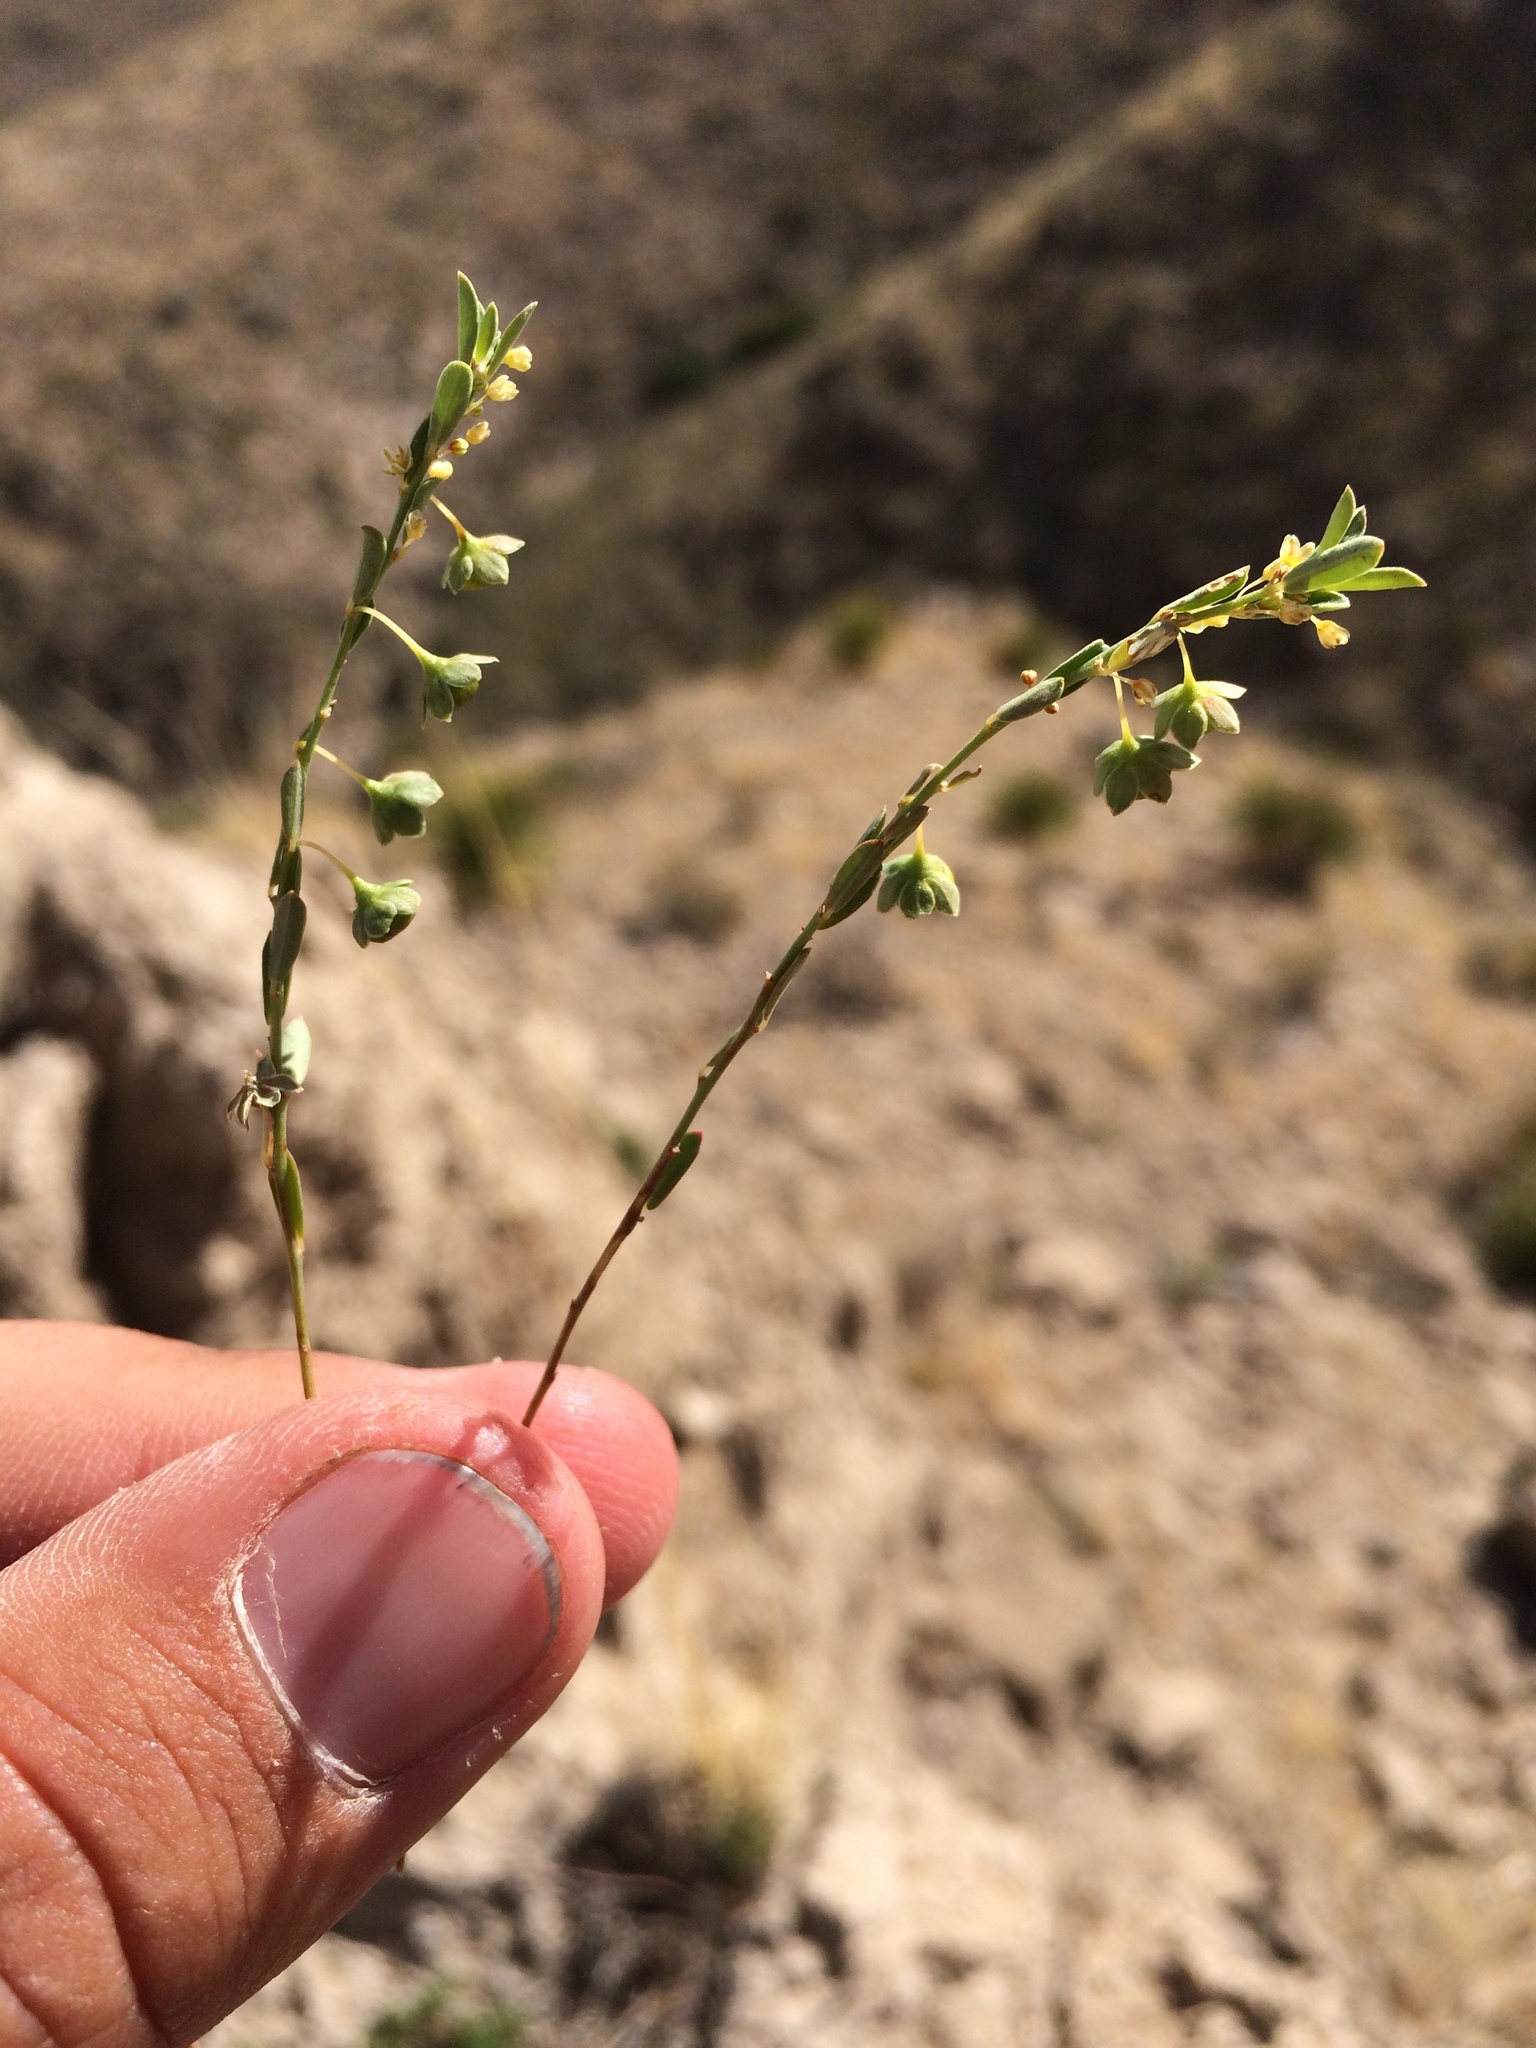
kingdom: Plantae
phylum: Tracheophyta
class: Magnoliopsida
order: Malpighiales
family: Phyllanthaceae
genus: Phyllanthus
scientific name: Phyllanthus polygonoides
